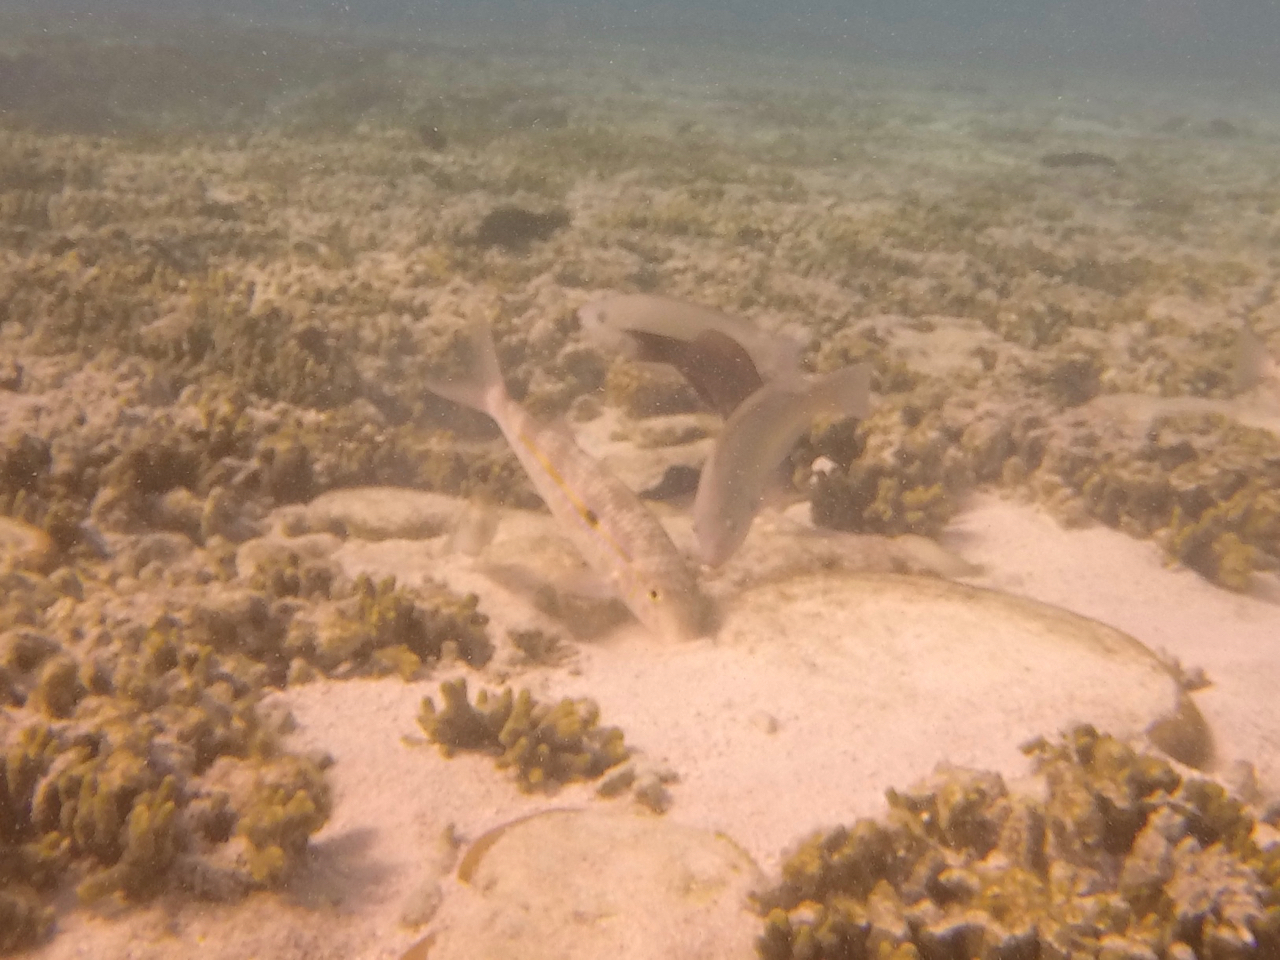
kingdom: Animalia
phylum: Chordata
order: Perciformes
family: Mullidae
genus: Mulloidichthys
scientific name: Mulloidichthys flavolineatus
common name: Yellowstripe goatfish
